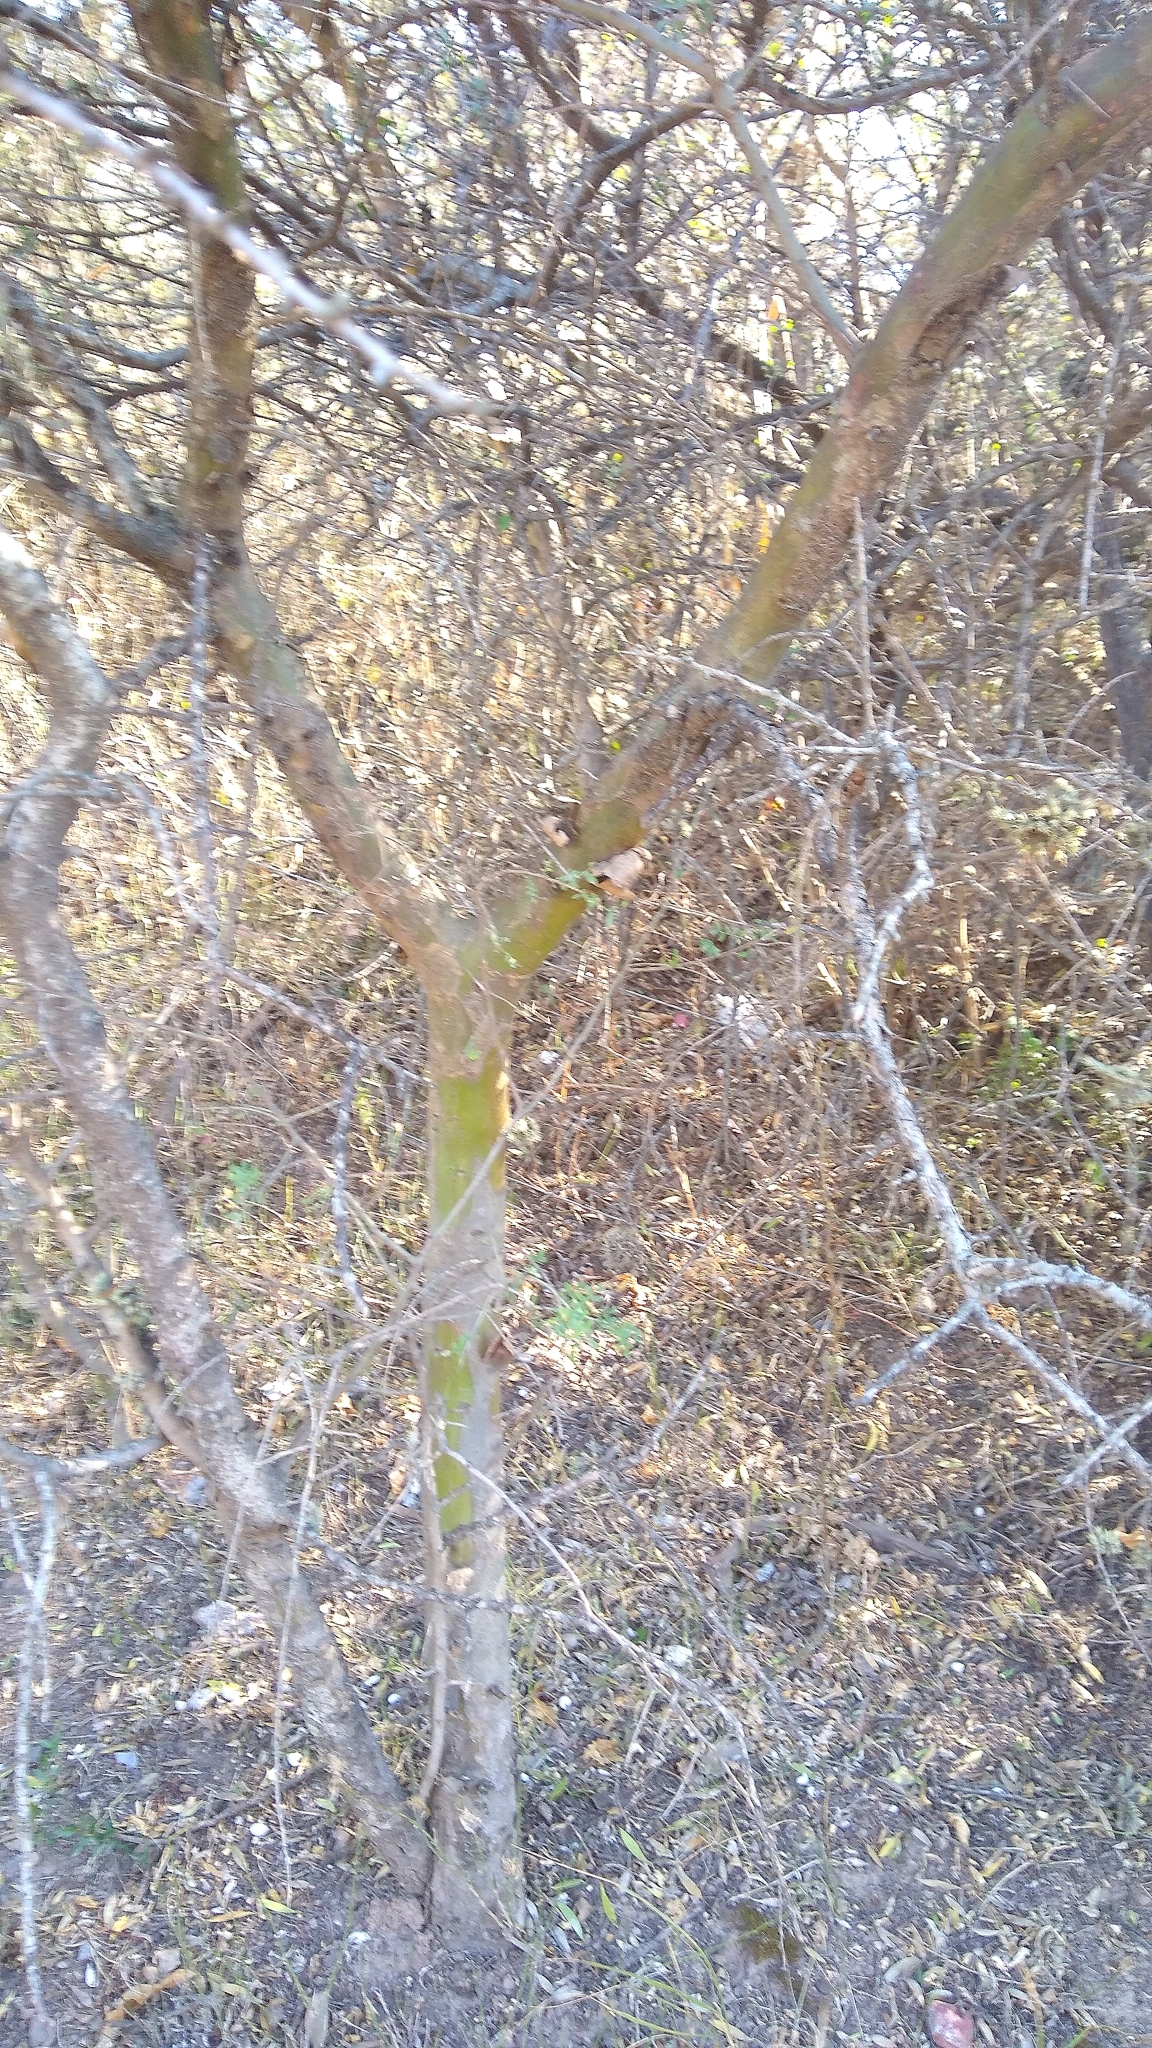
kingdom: Plantae
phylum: Tracheophyta
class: Magnoliopsida
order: Fabales
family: Fabaceae
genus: Geoffroea
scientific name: Geoffroea decorticans
